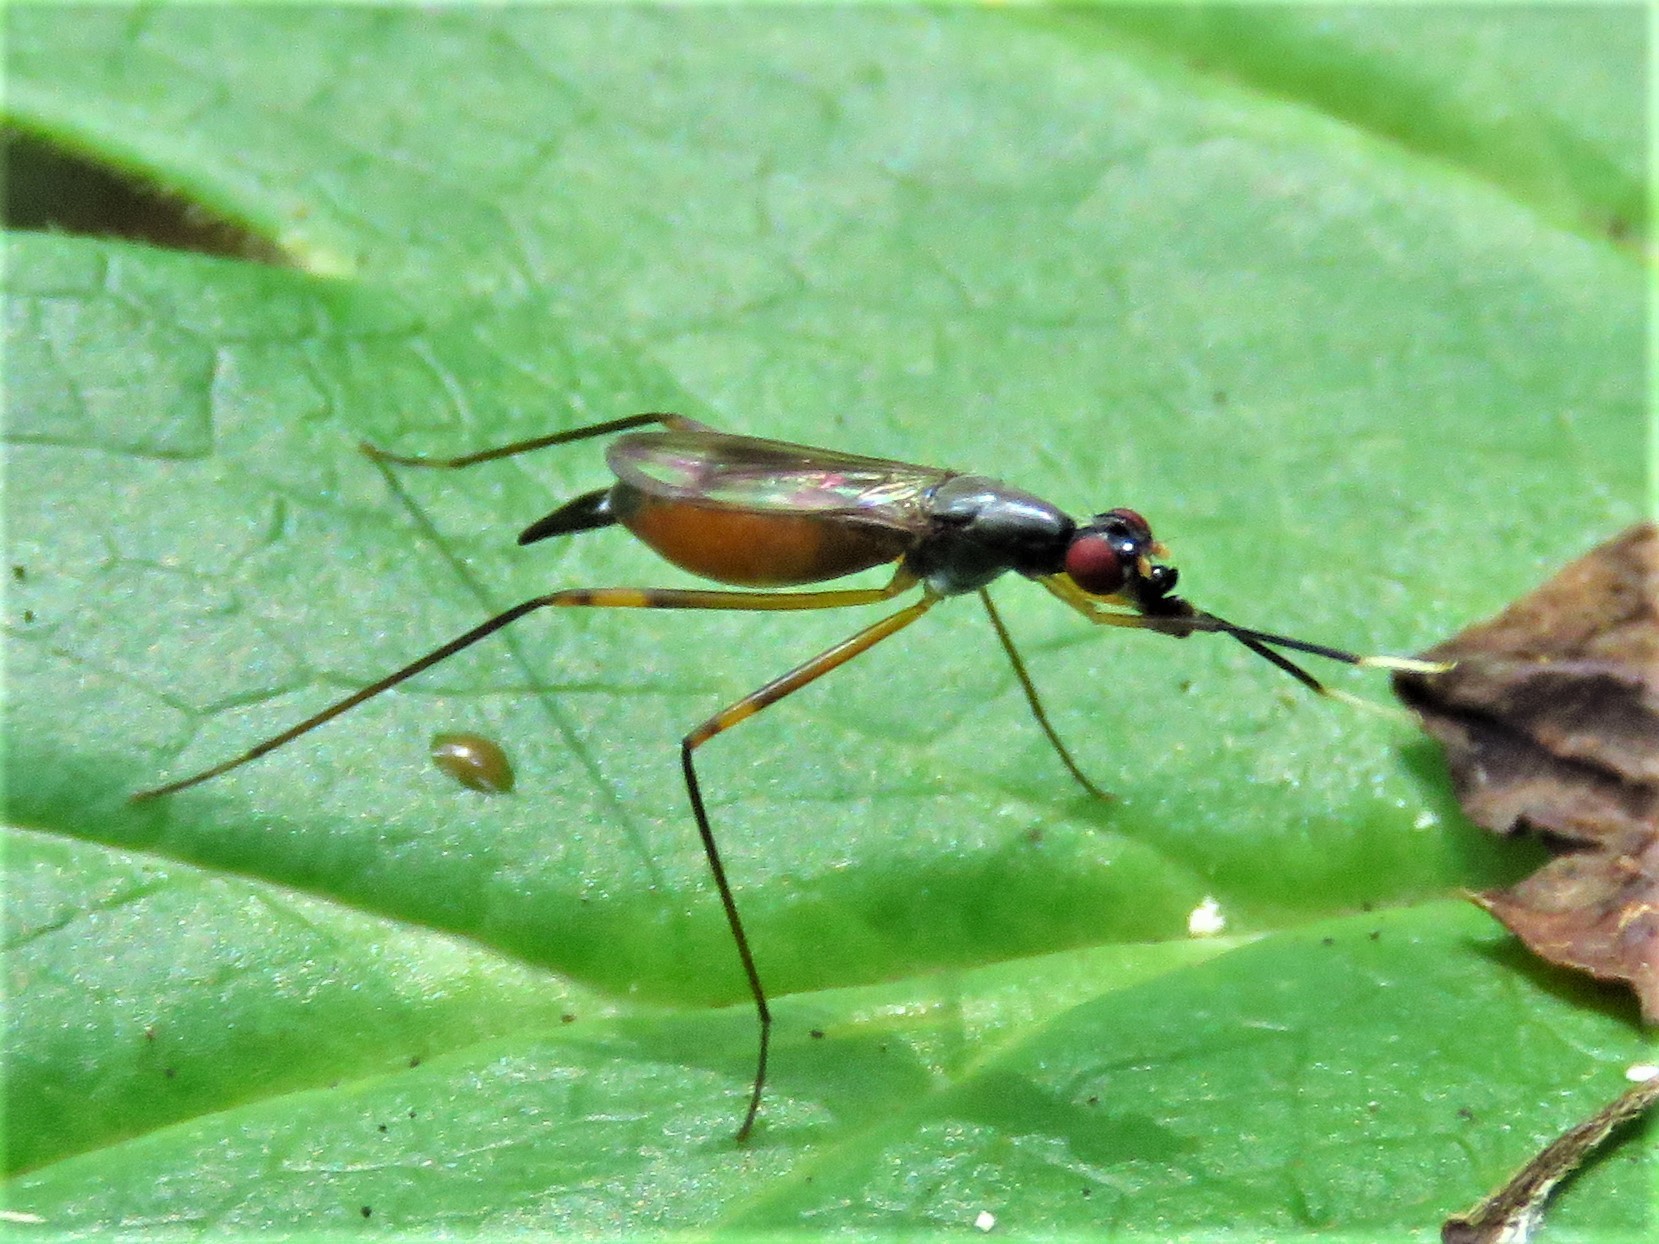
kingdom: Animalia
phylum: Arthropoda
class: Insecta
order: Diptera
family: Micropezidae
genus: Rainieria
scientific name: Rainieria antennaepes
